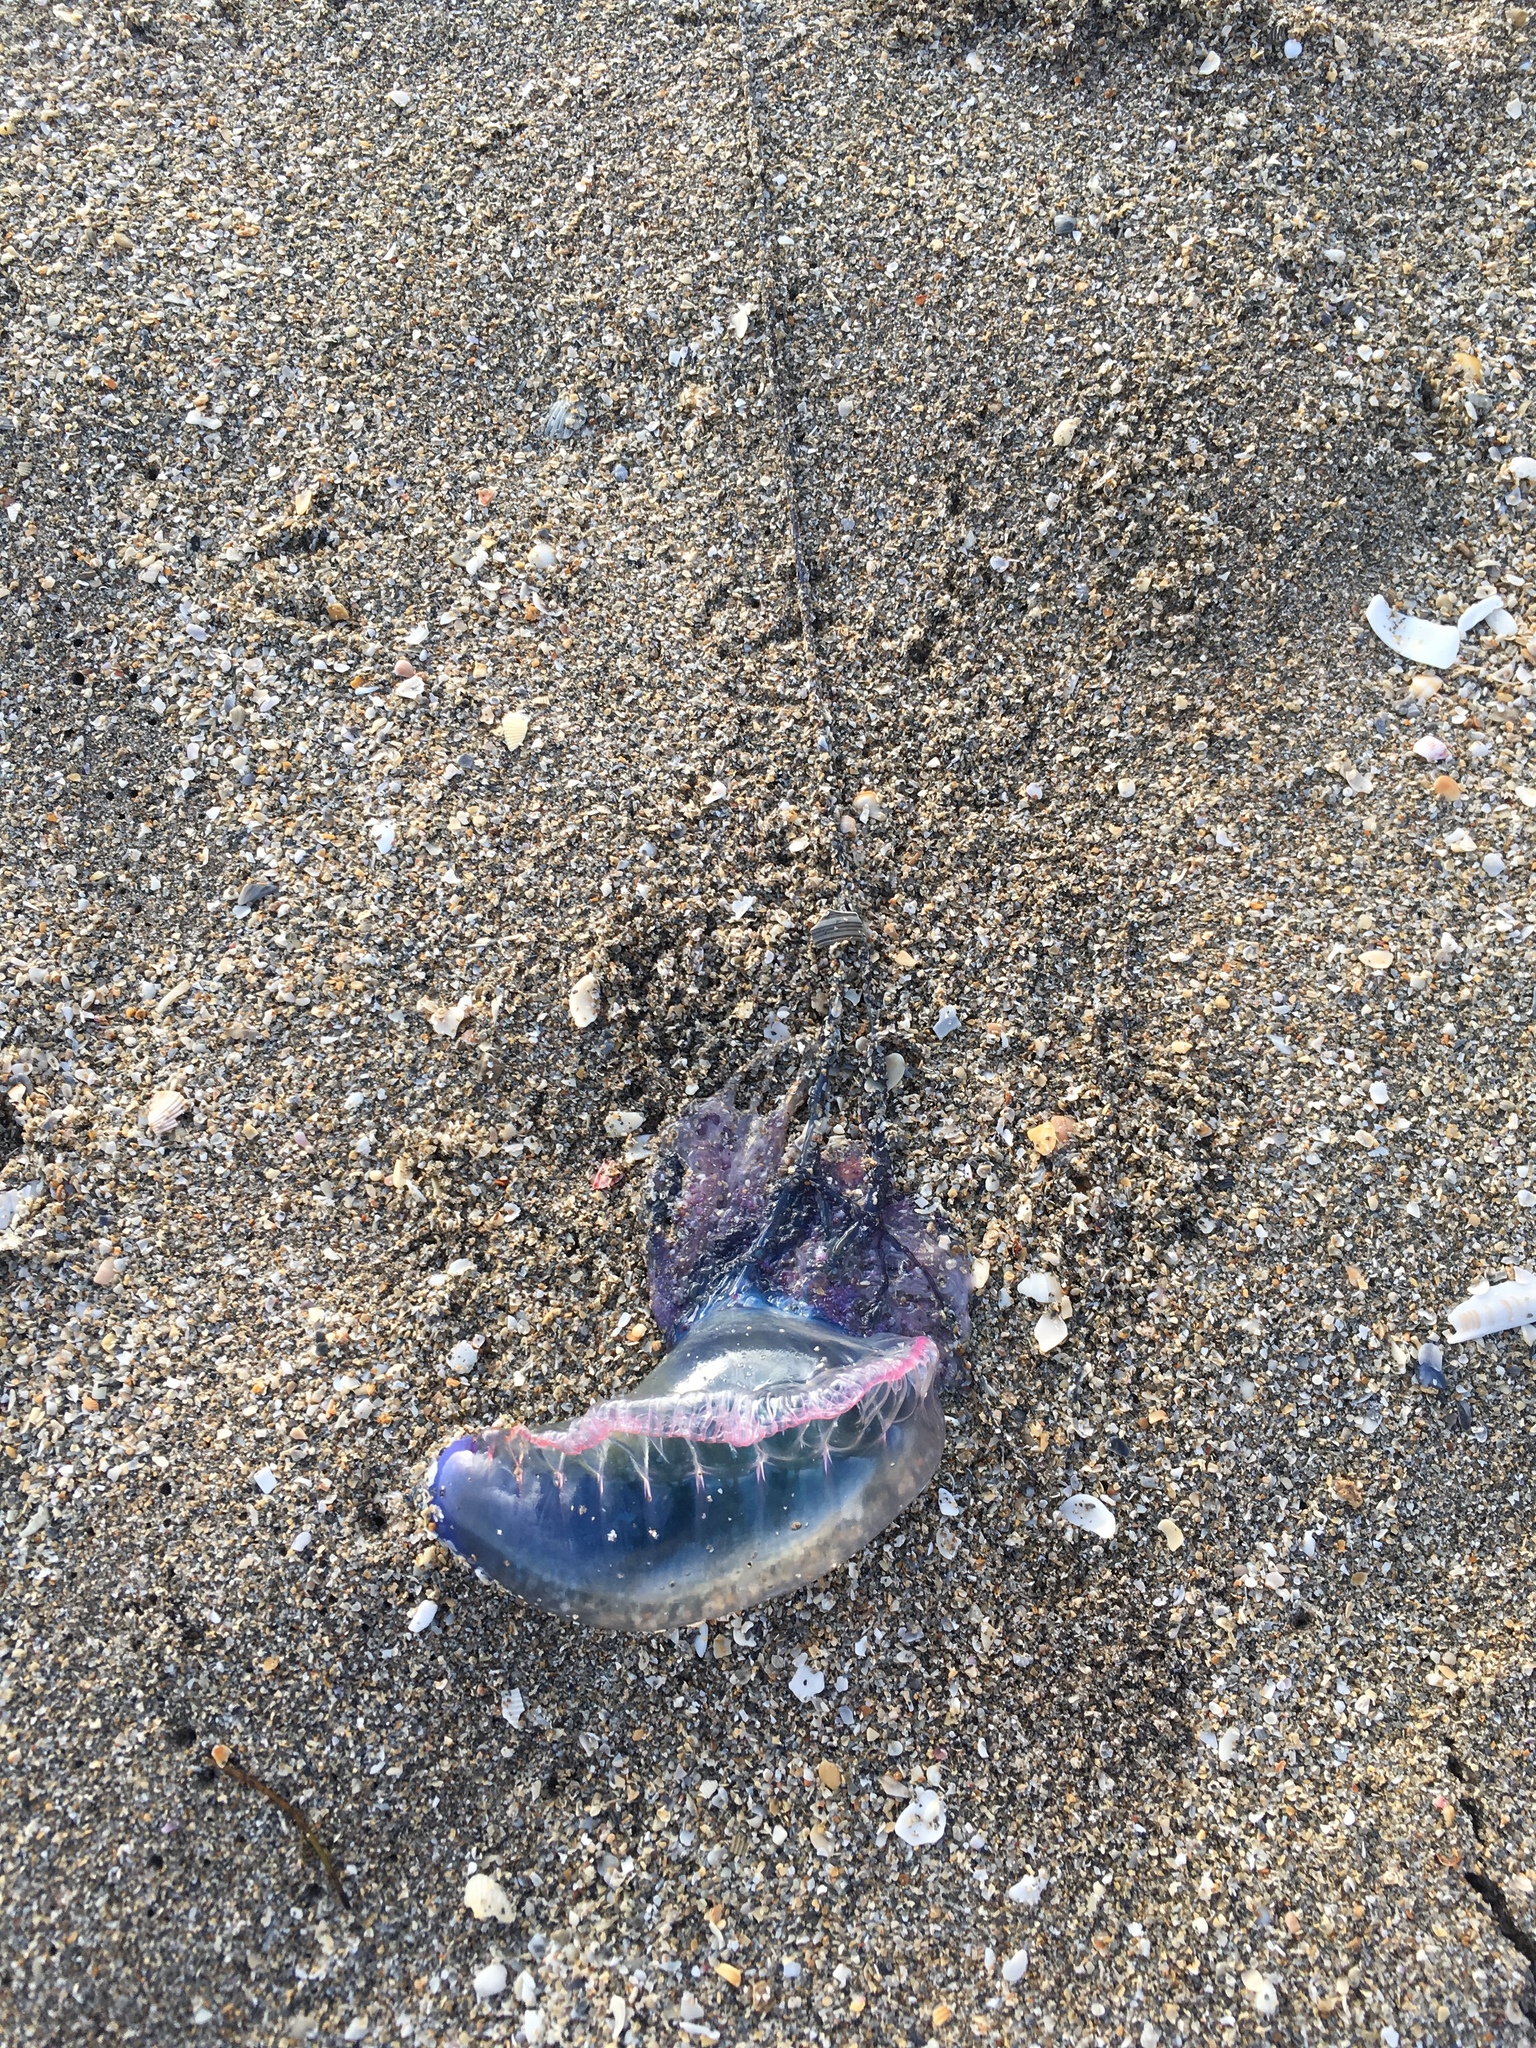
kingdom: Animalia
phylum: Cnidaria
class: Hydrozoa
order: Siphonophorae
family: Physaliidae
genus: Physalia
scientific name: Physalia physalis
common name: Portuguese man-of-war
